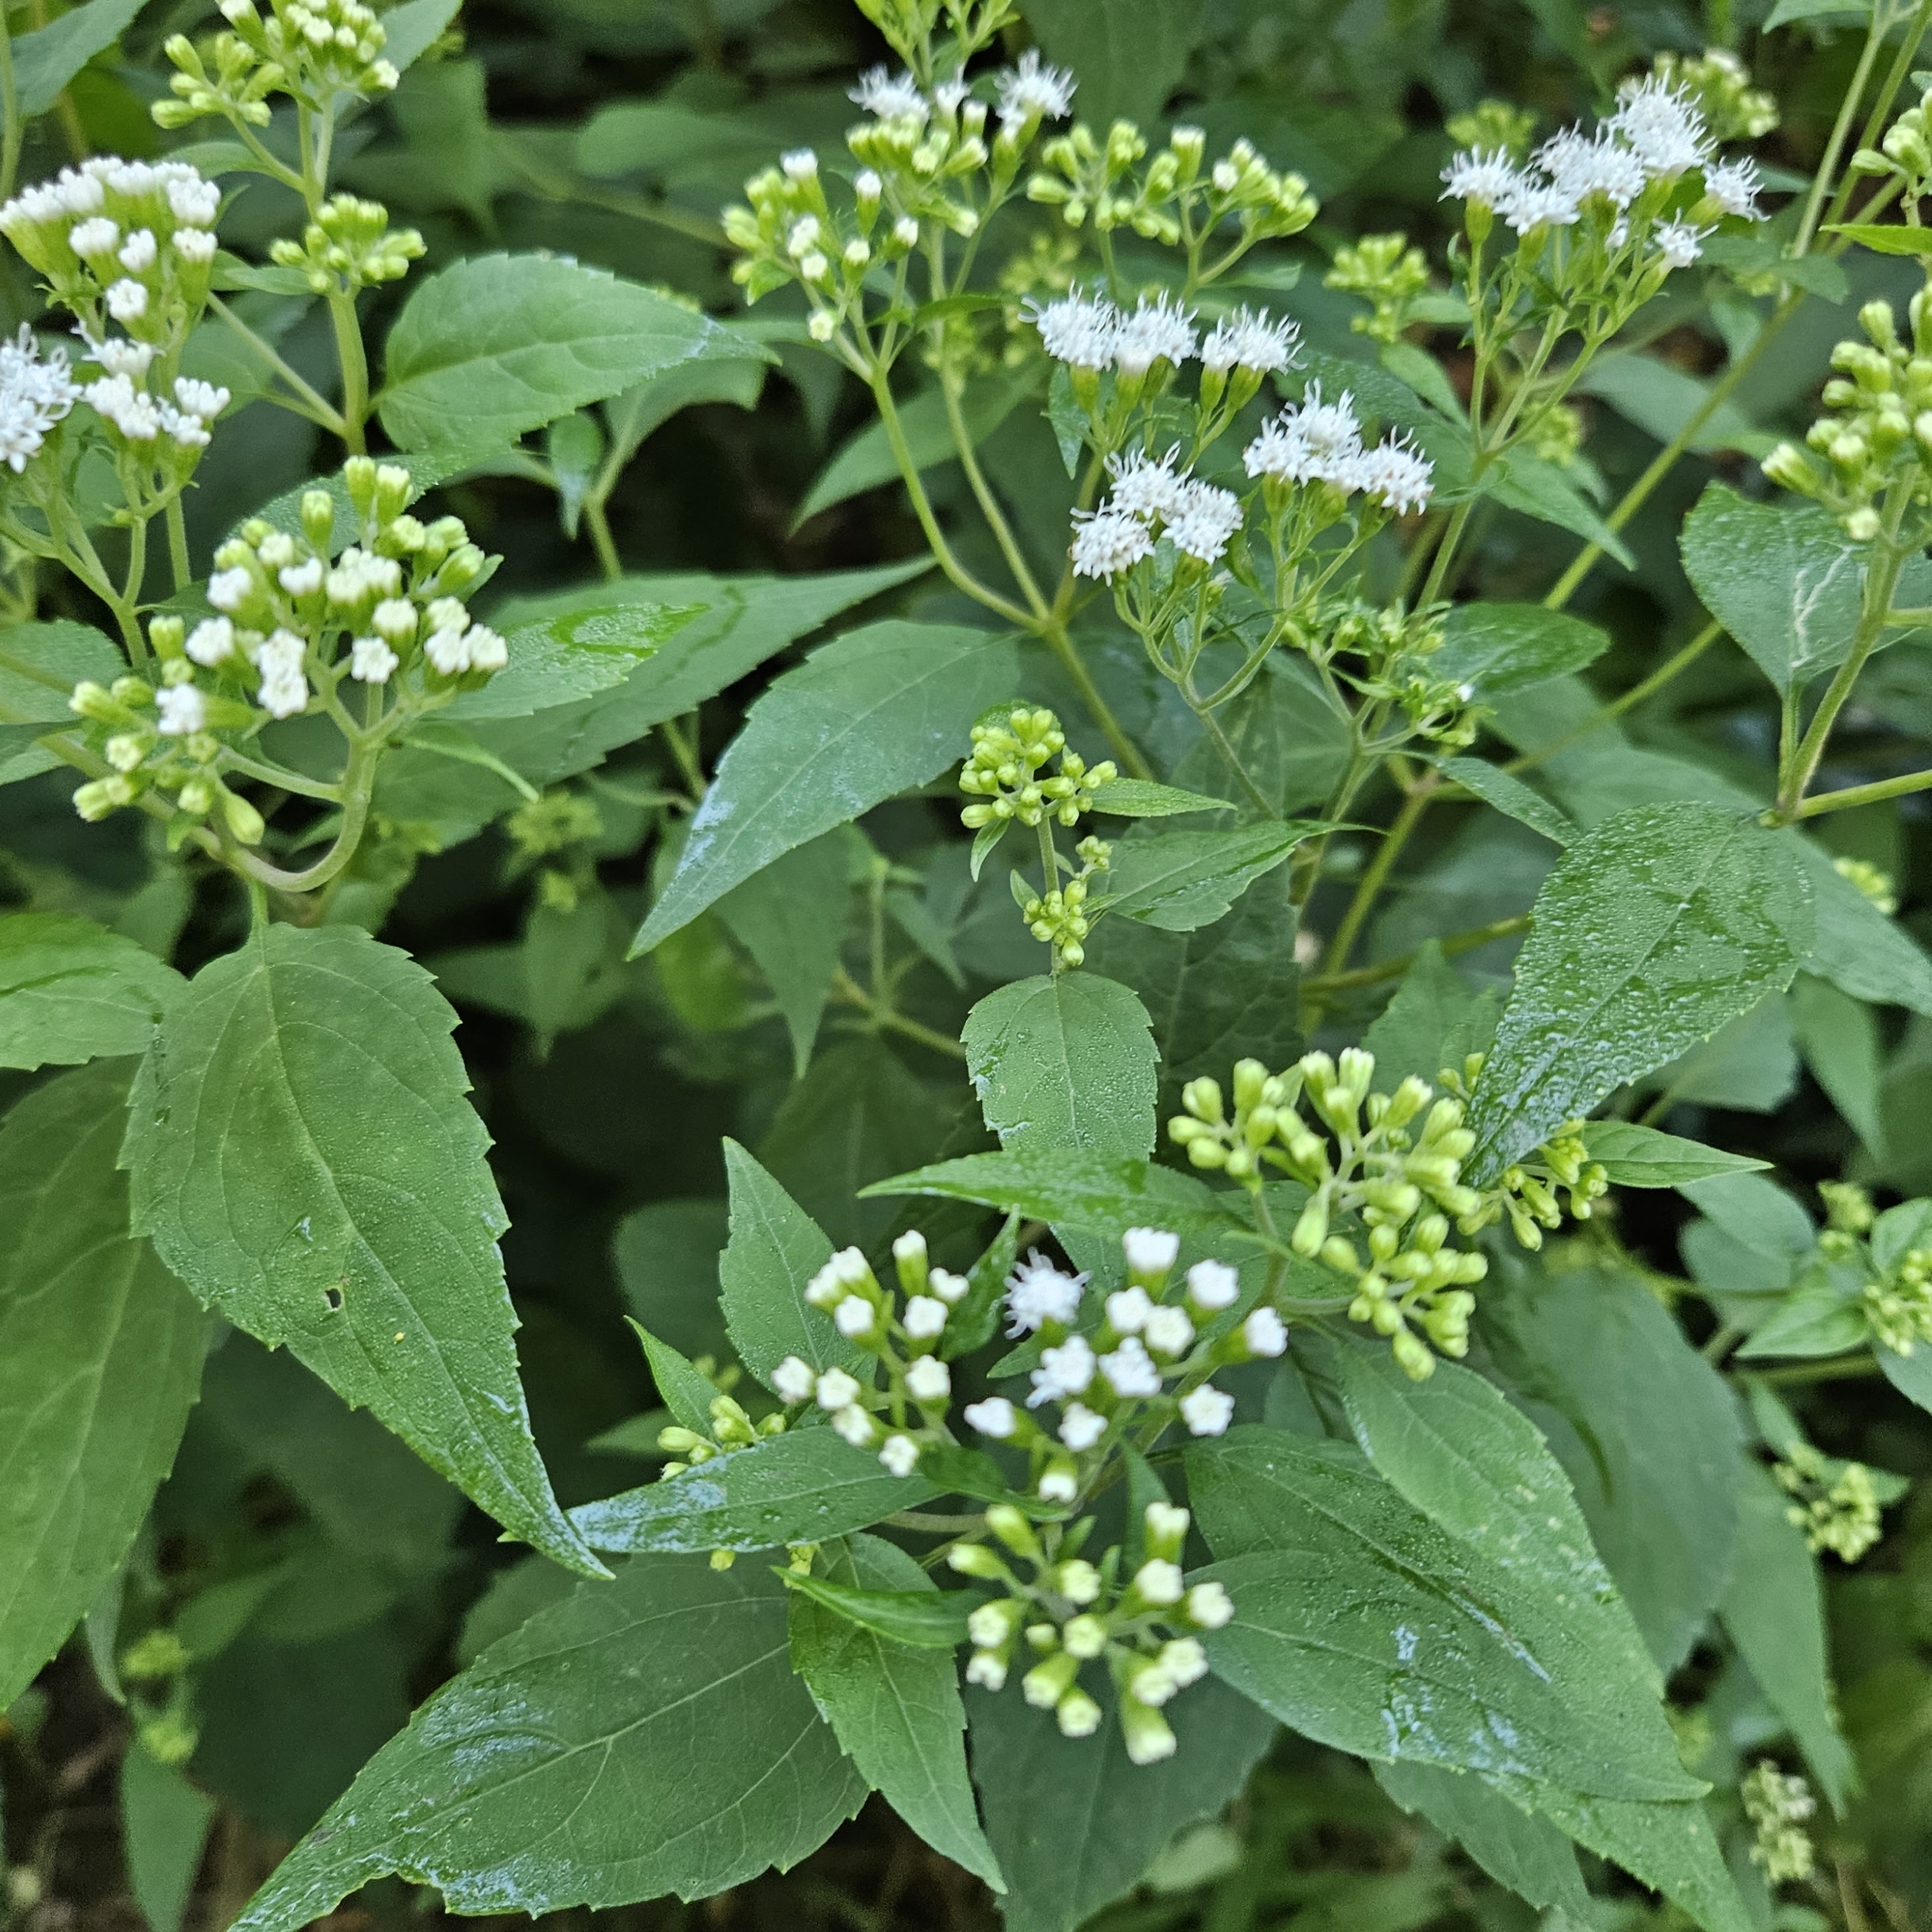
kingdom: Plantae
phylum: Tracheophyta
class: Magnoliopsida
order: Asterales
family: Asteraceae
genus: Ageratina
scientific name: Ageratina altissima
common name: White snakeroot
